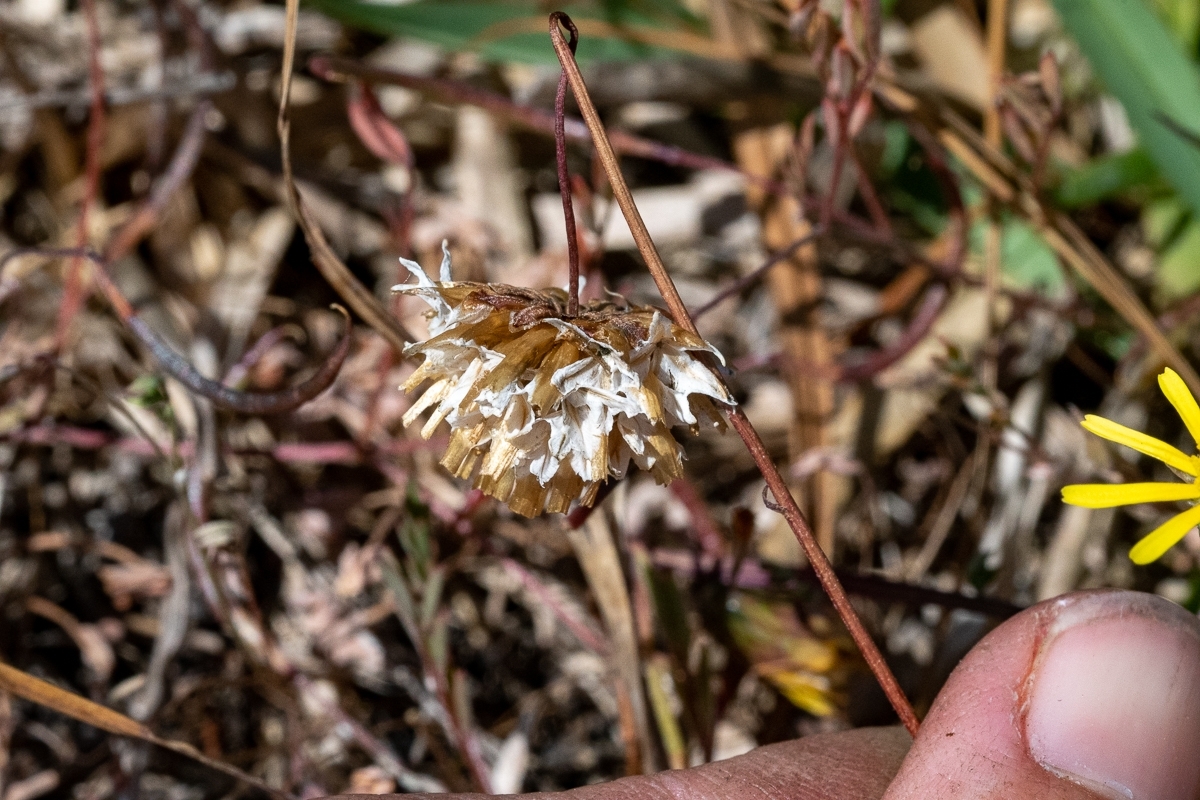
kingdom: Plantae
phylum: Tracheophyta
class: Magnoliopsida
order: Asterales
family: Asteraceae
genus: Ursinia
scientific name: Ursinia anthemoides
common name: Ursinia
